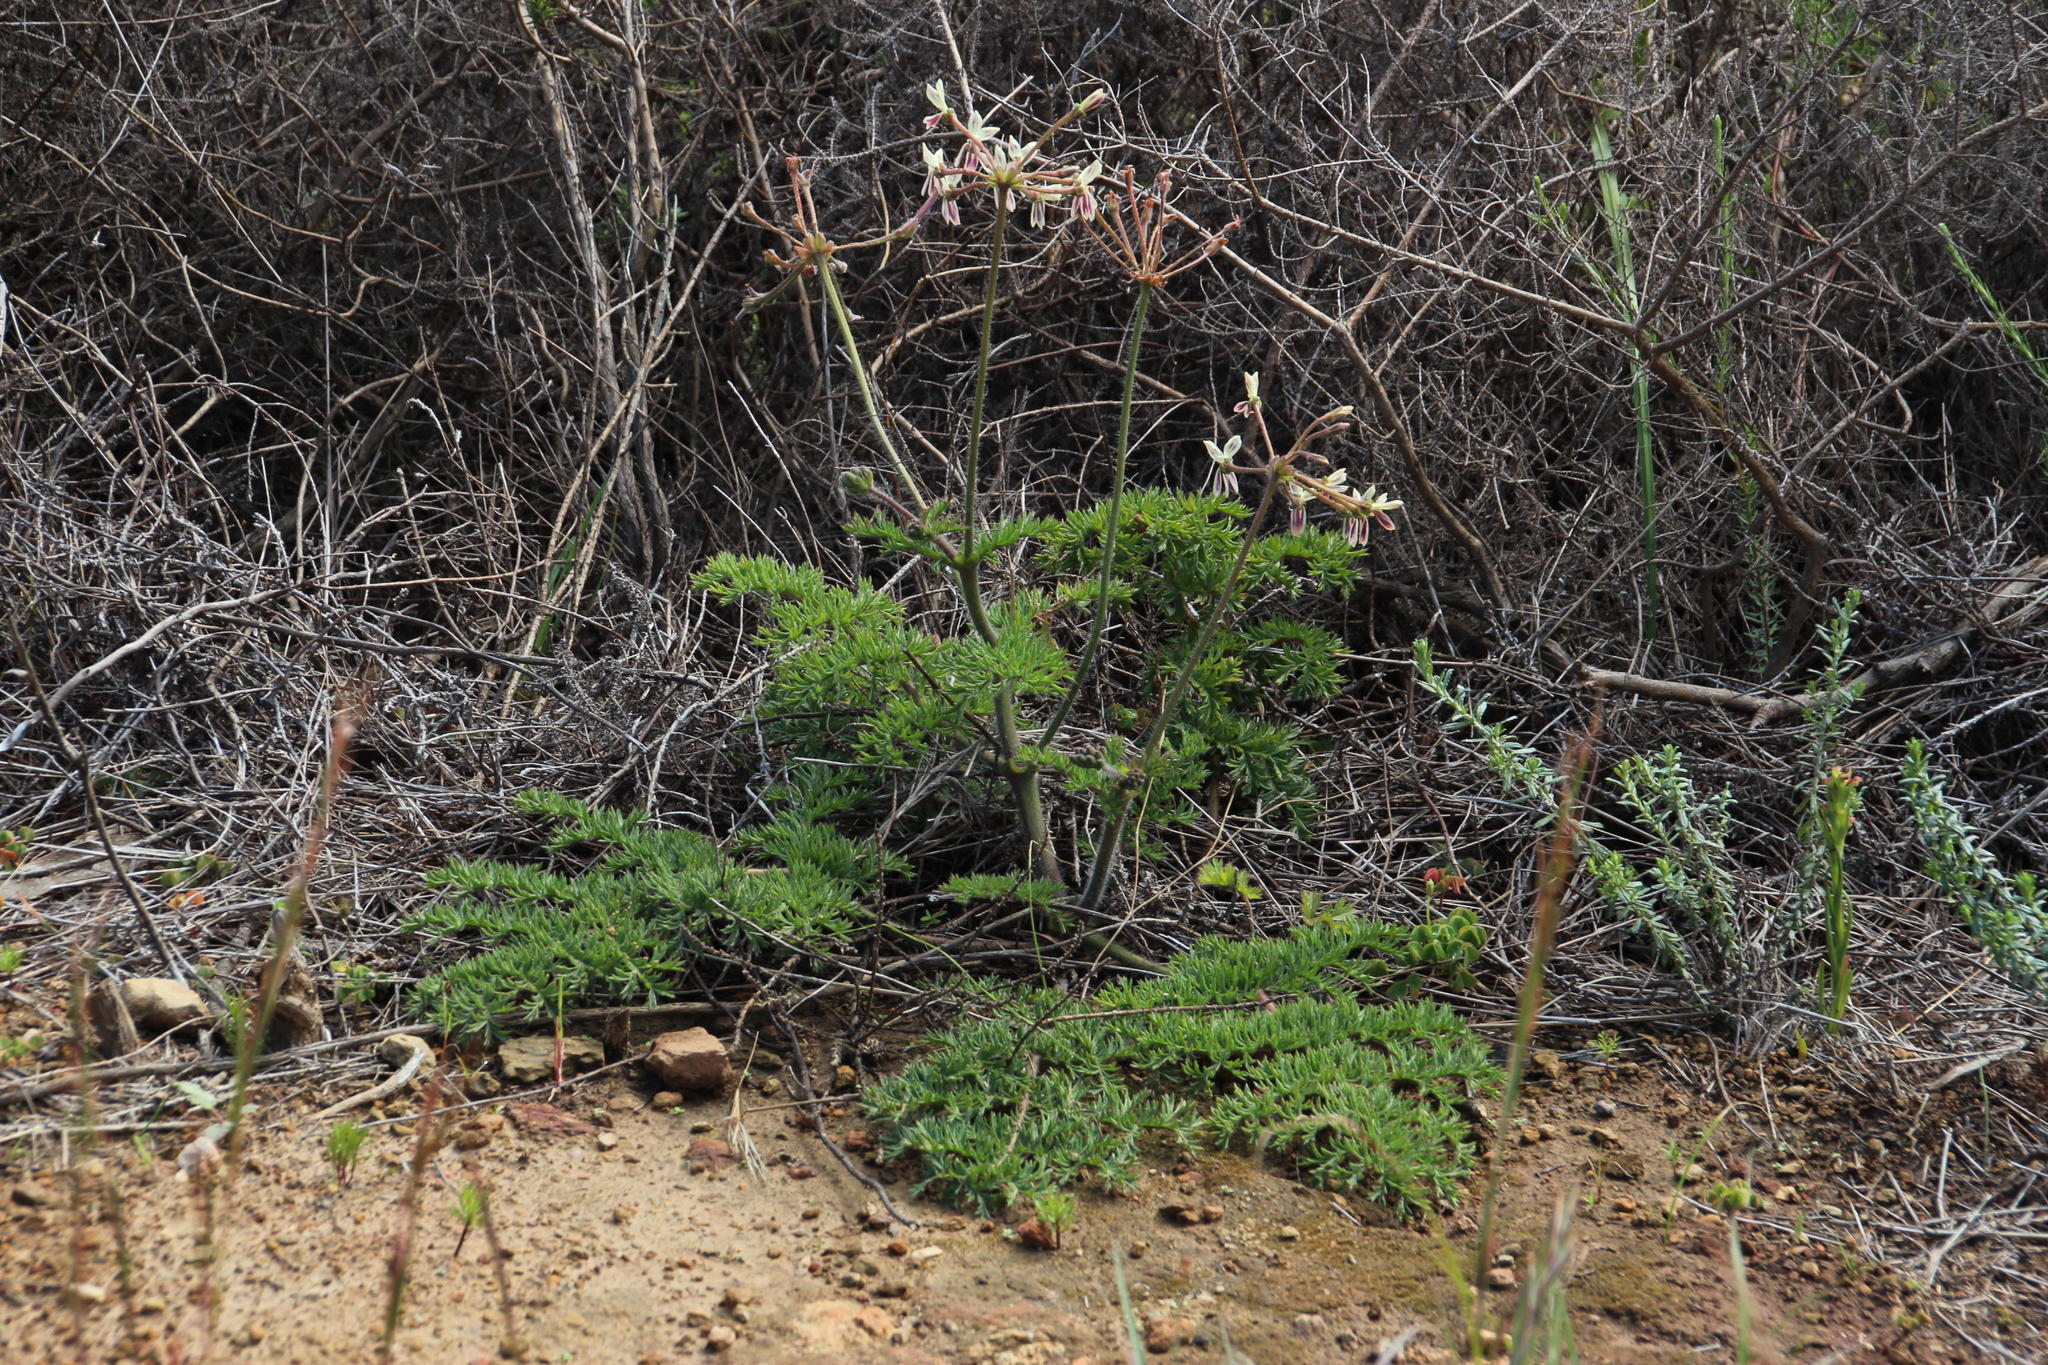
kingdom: Plantae
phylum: Tracheophyta
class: Magnoliopsida
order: Geraniales
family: Geraniaceae
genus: Pelargonium
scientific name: Pelargonium triste
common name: Night-scent pelargonium
